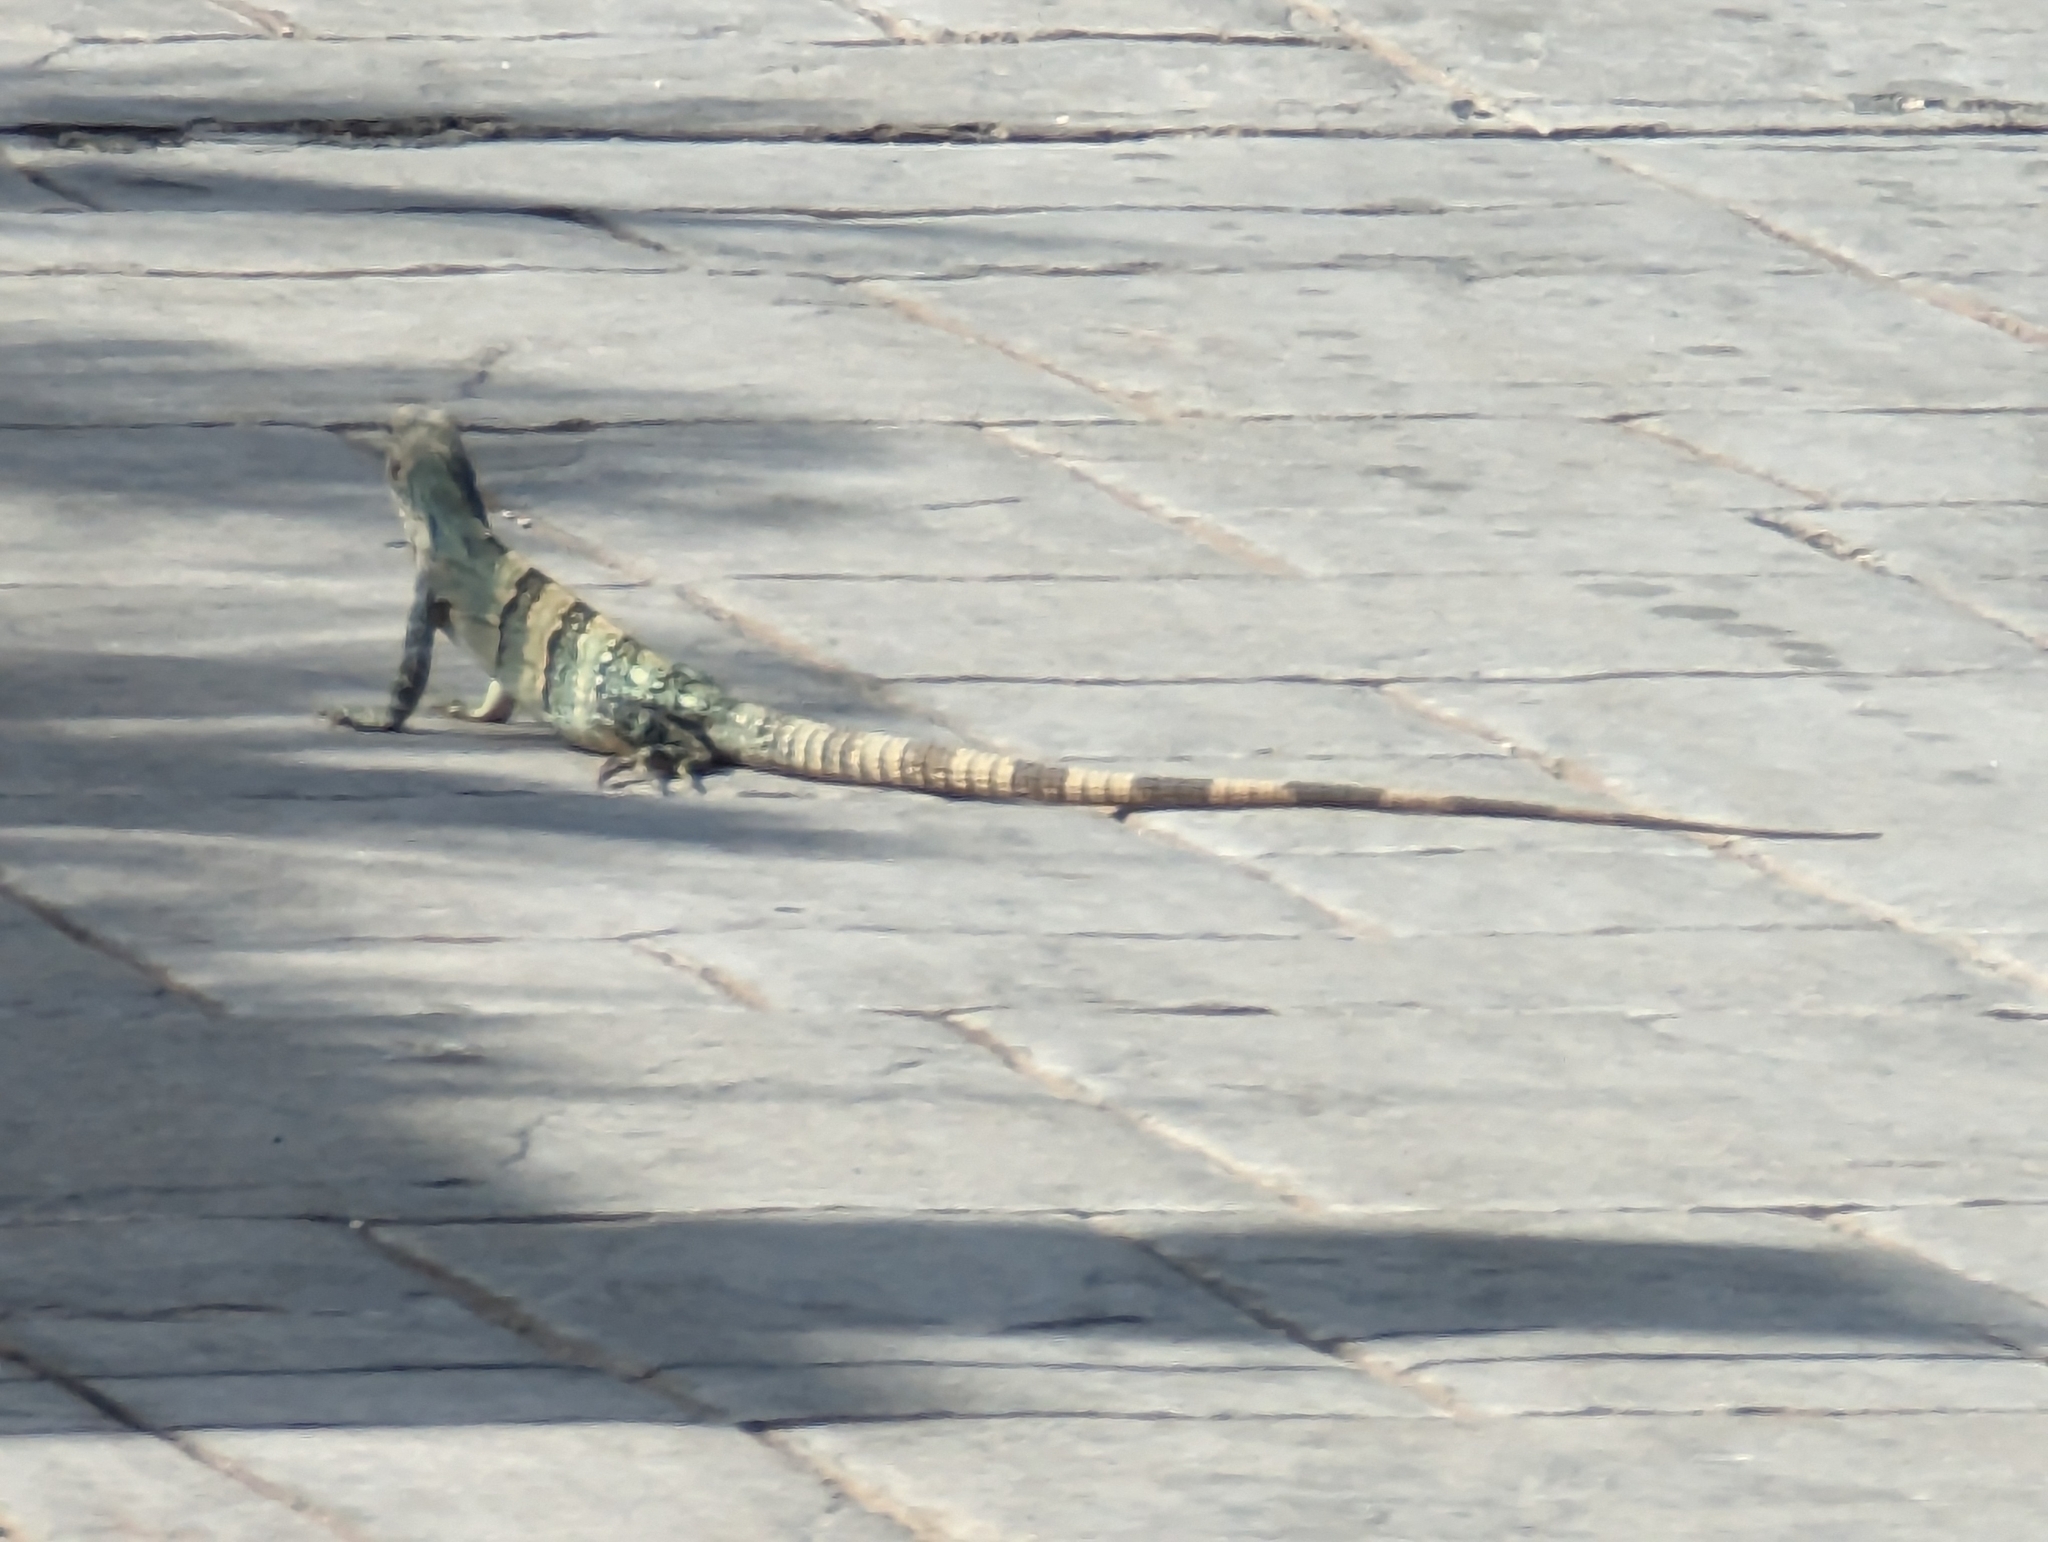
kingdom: Animalia
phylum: Chordata
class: Squamata
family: Iguanidae
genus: Ctenosaura
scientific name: Ctenosaura similis
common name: Black spiny-tailed iguana
